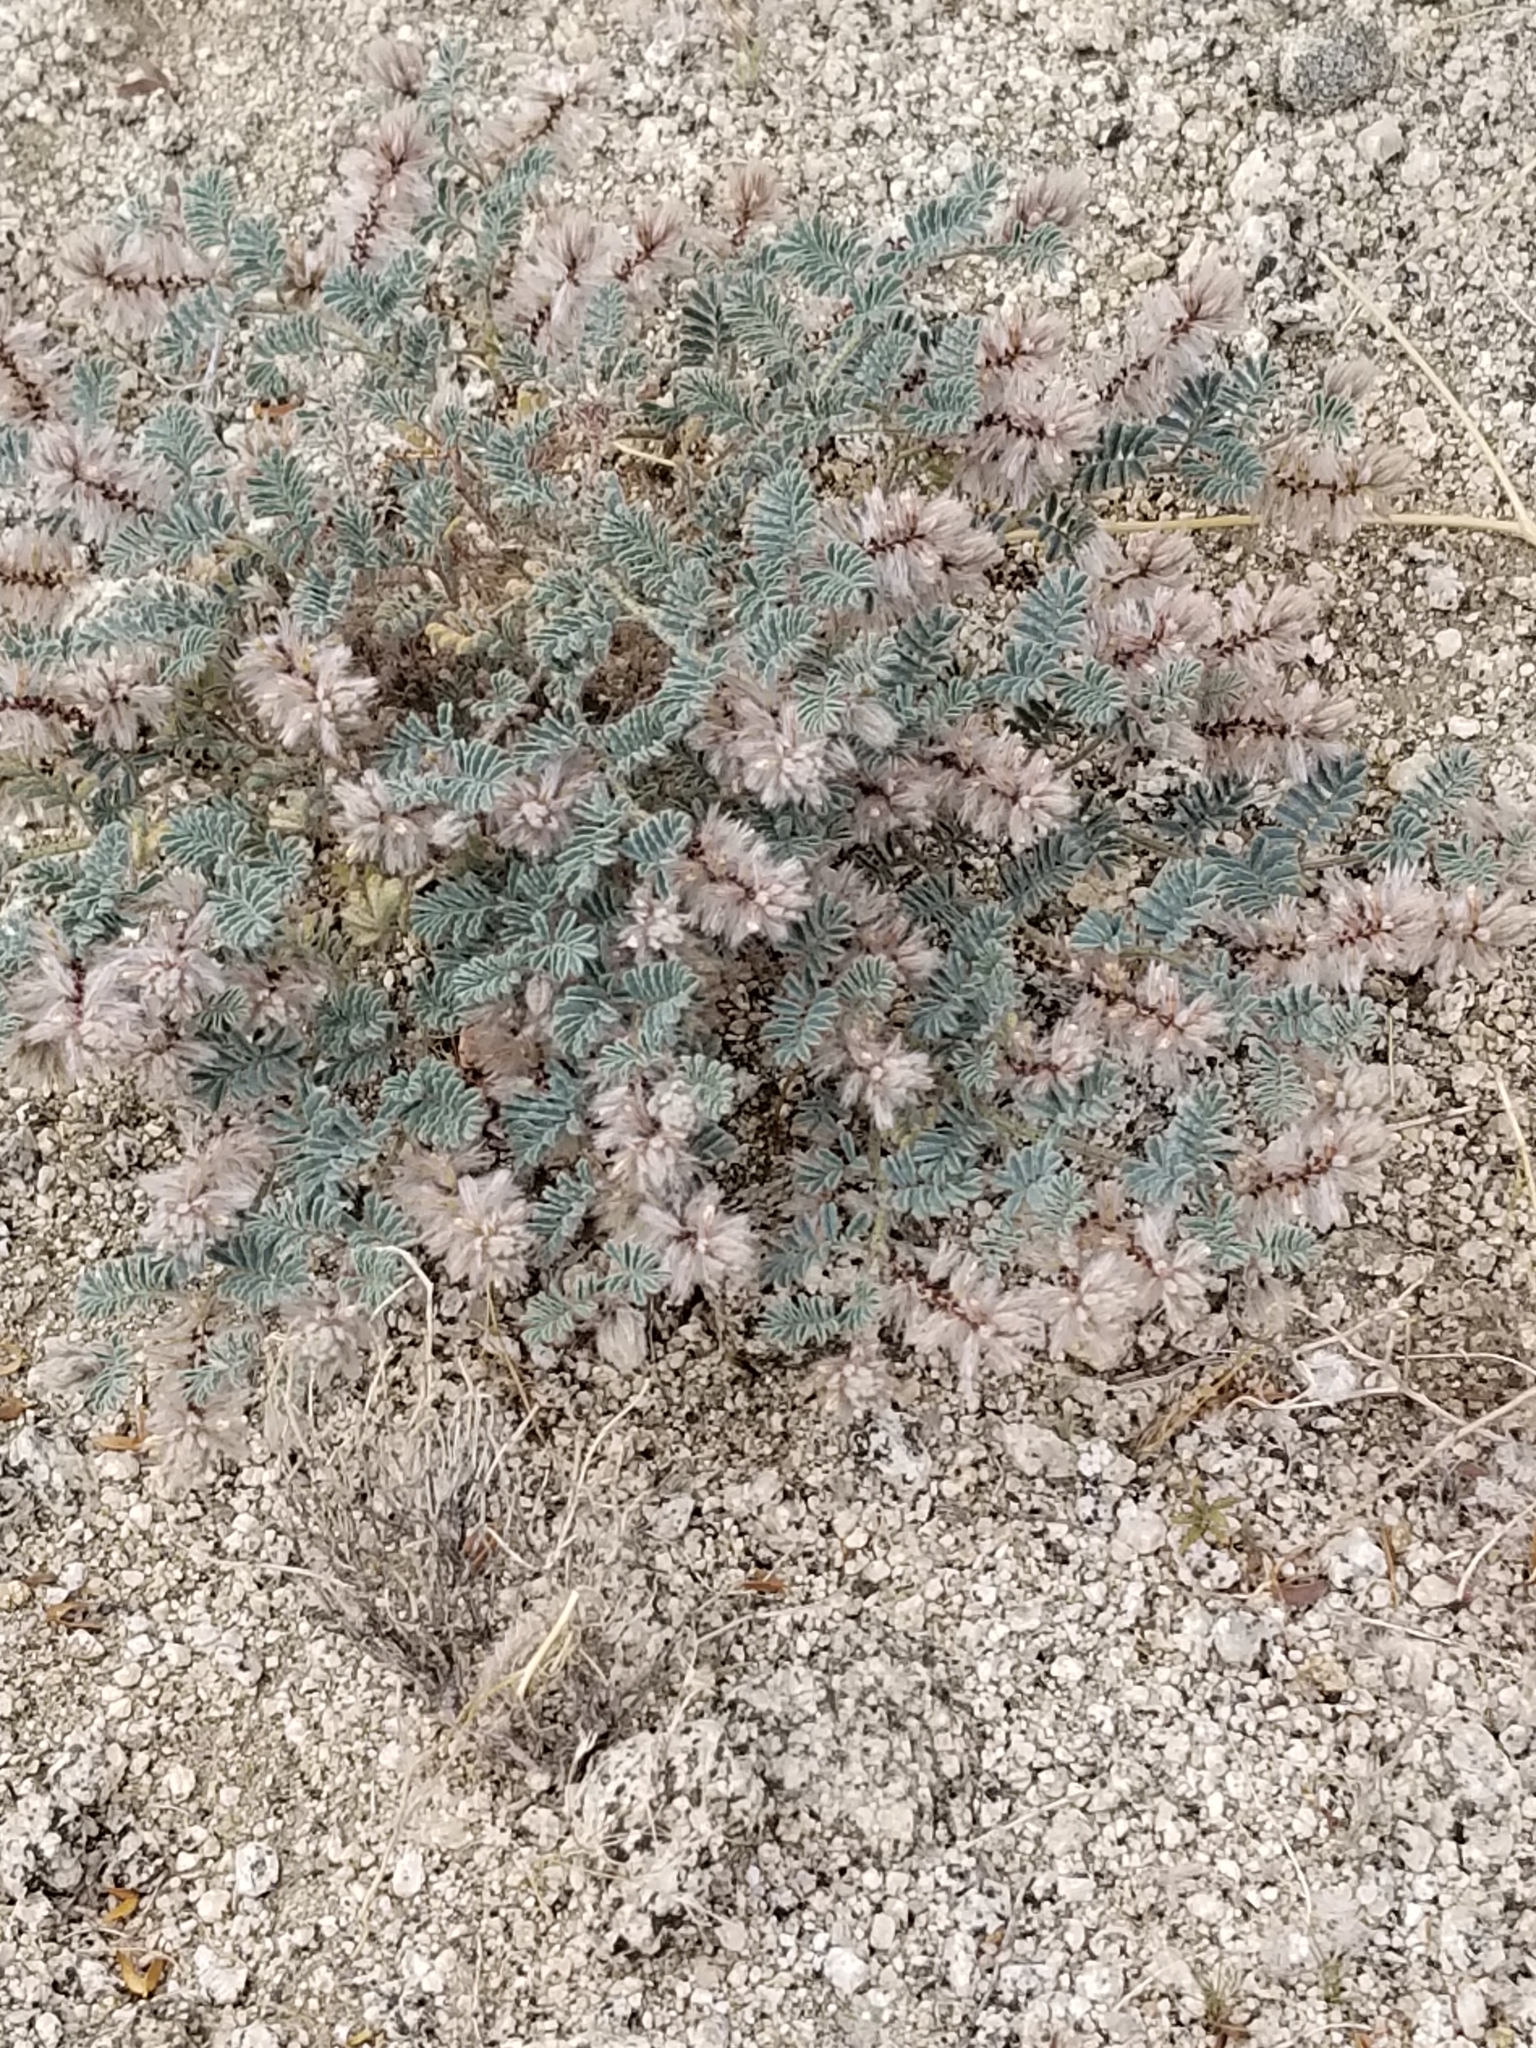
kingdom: Plantae
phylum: Tracheophyta
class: Magnoliopsida
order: Fabales
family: Fabaceae
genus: Dalea
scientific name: Dalea mollissima
